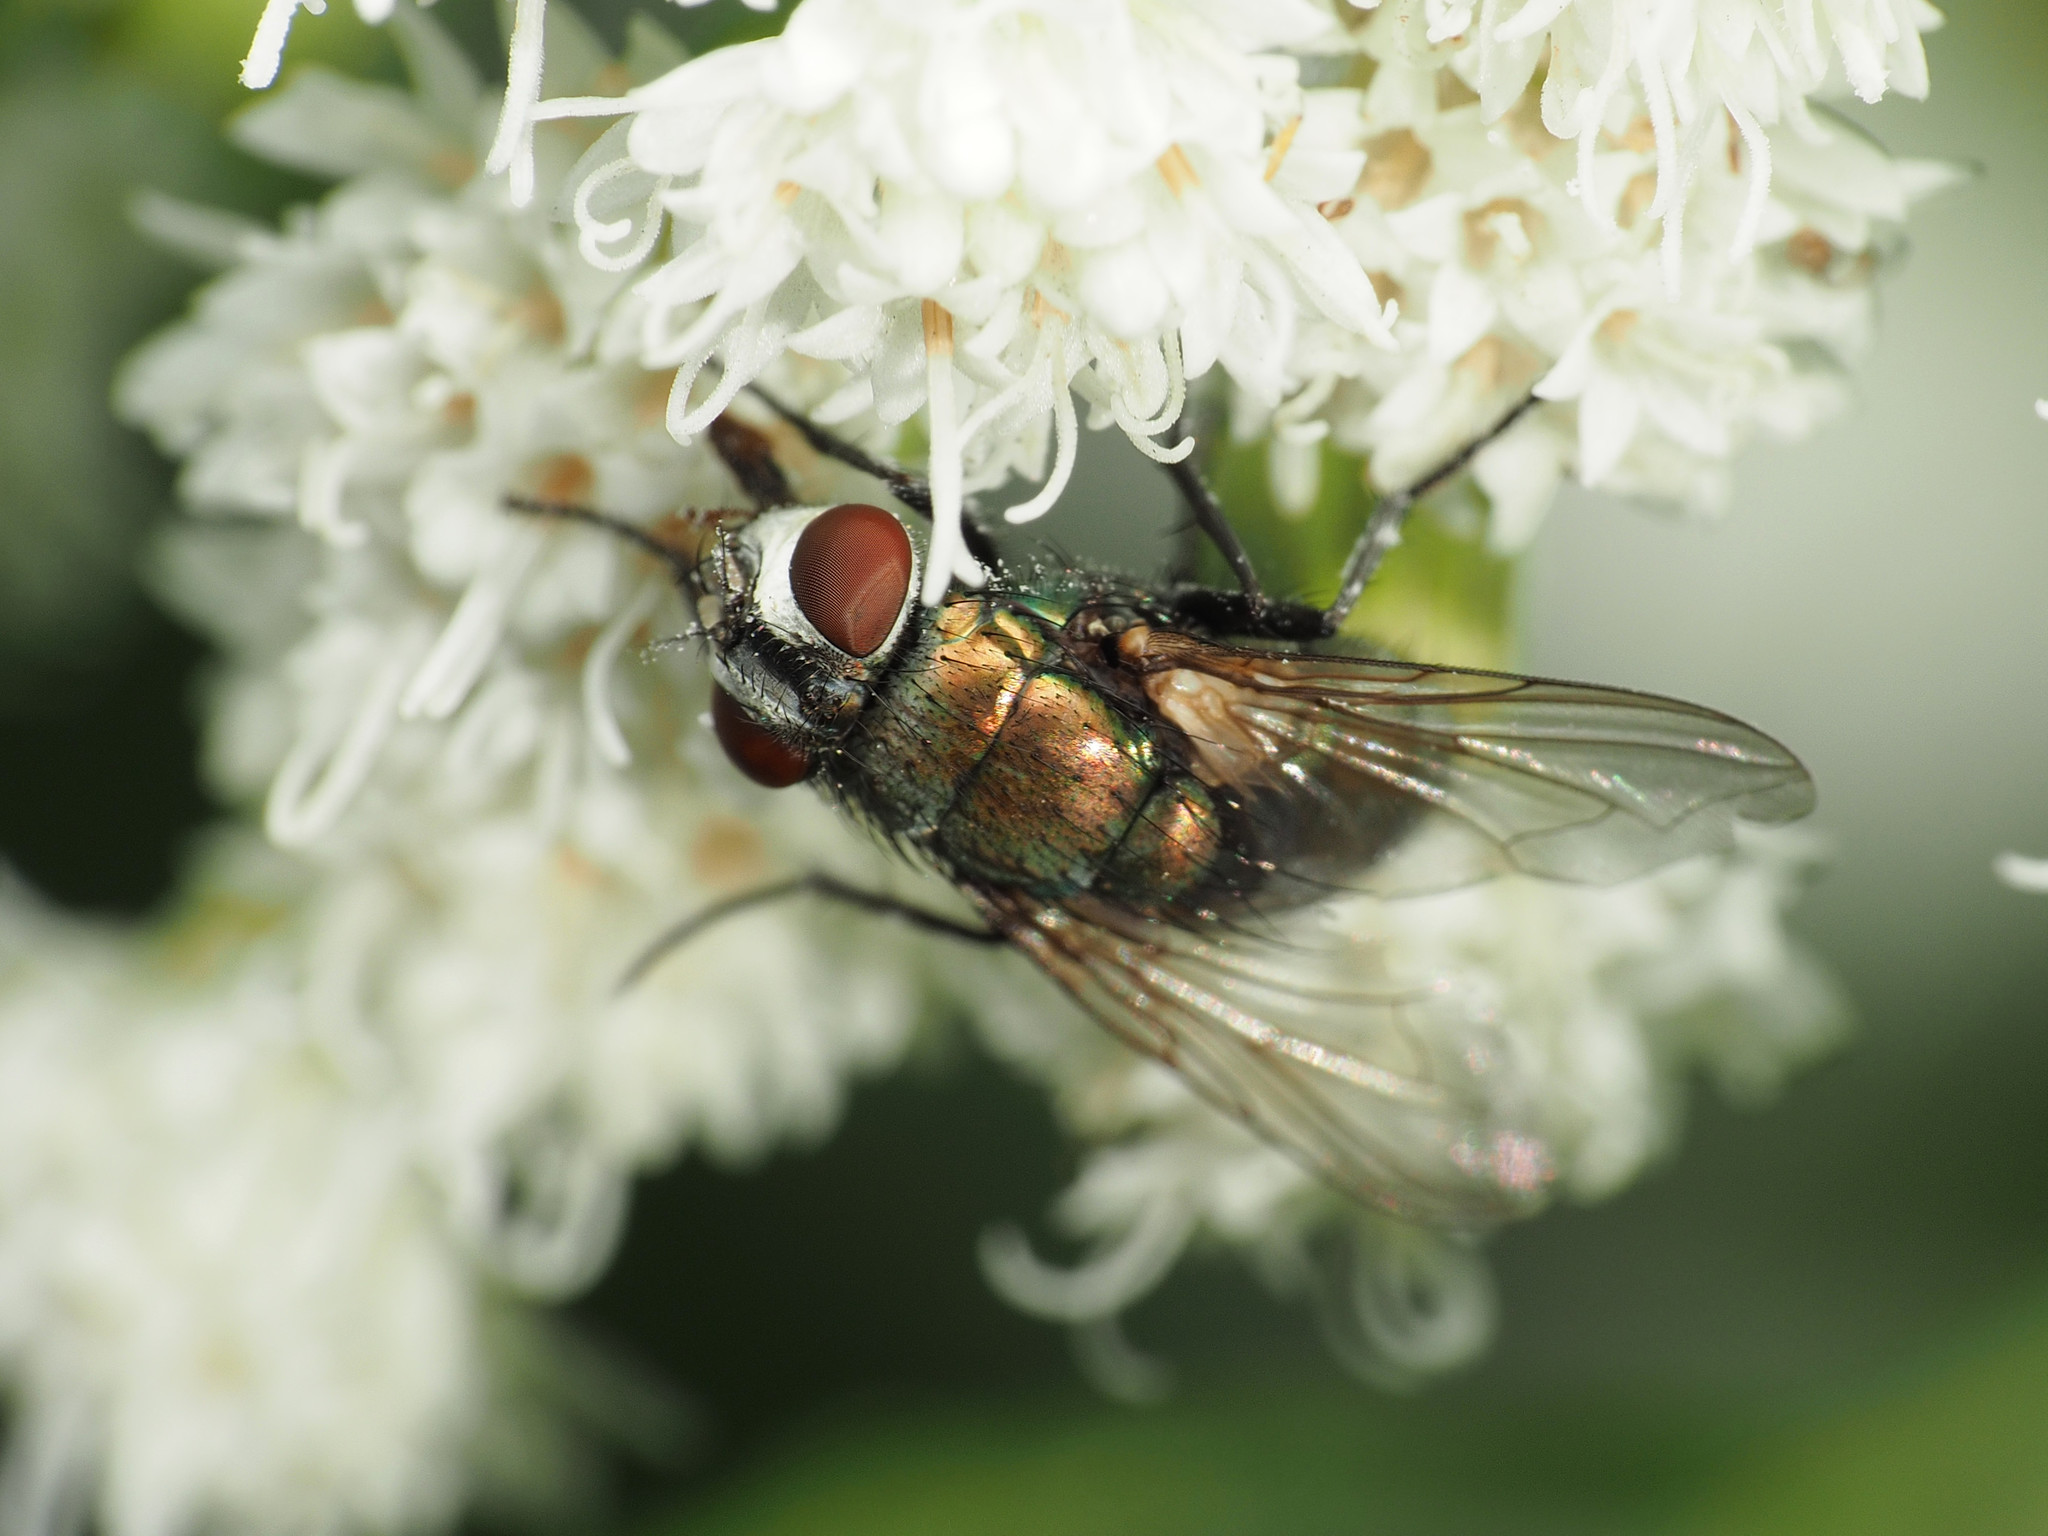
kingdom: Animalia
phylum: Arthropoda
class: Insecta
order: Diptera
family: Calliphoridae
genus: Lucilia
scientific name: Lucilia cuprina
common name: Sheep blow fly
